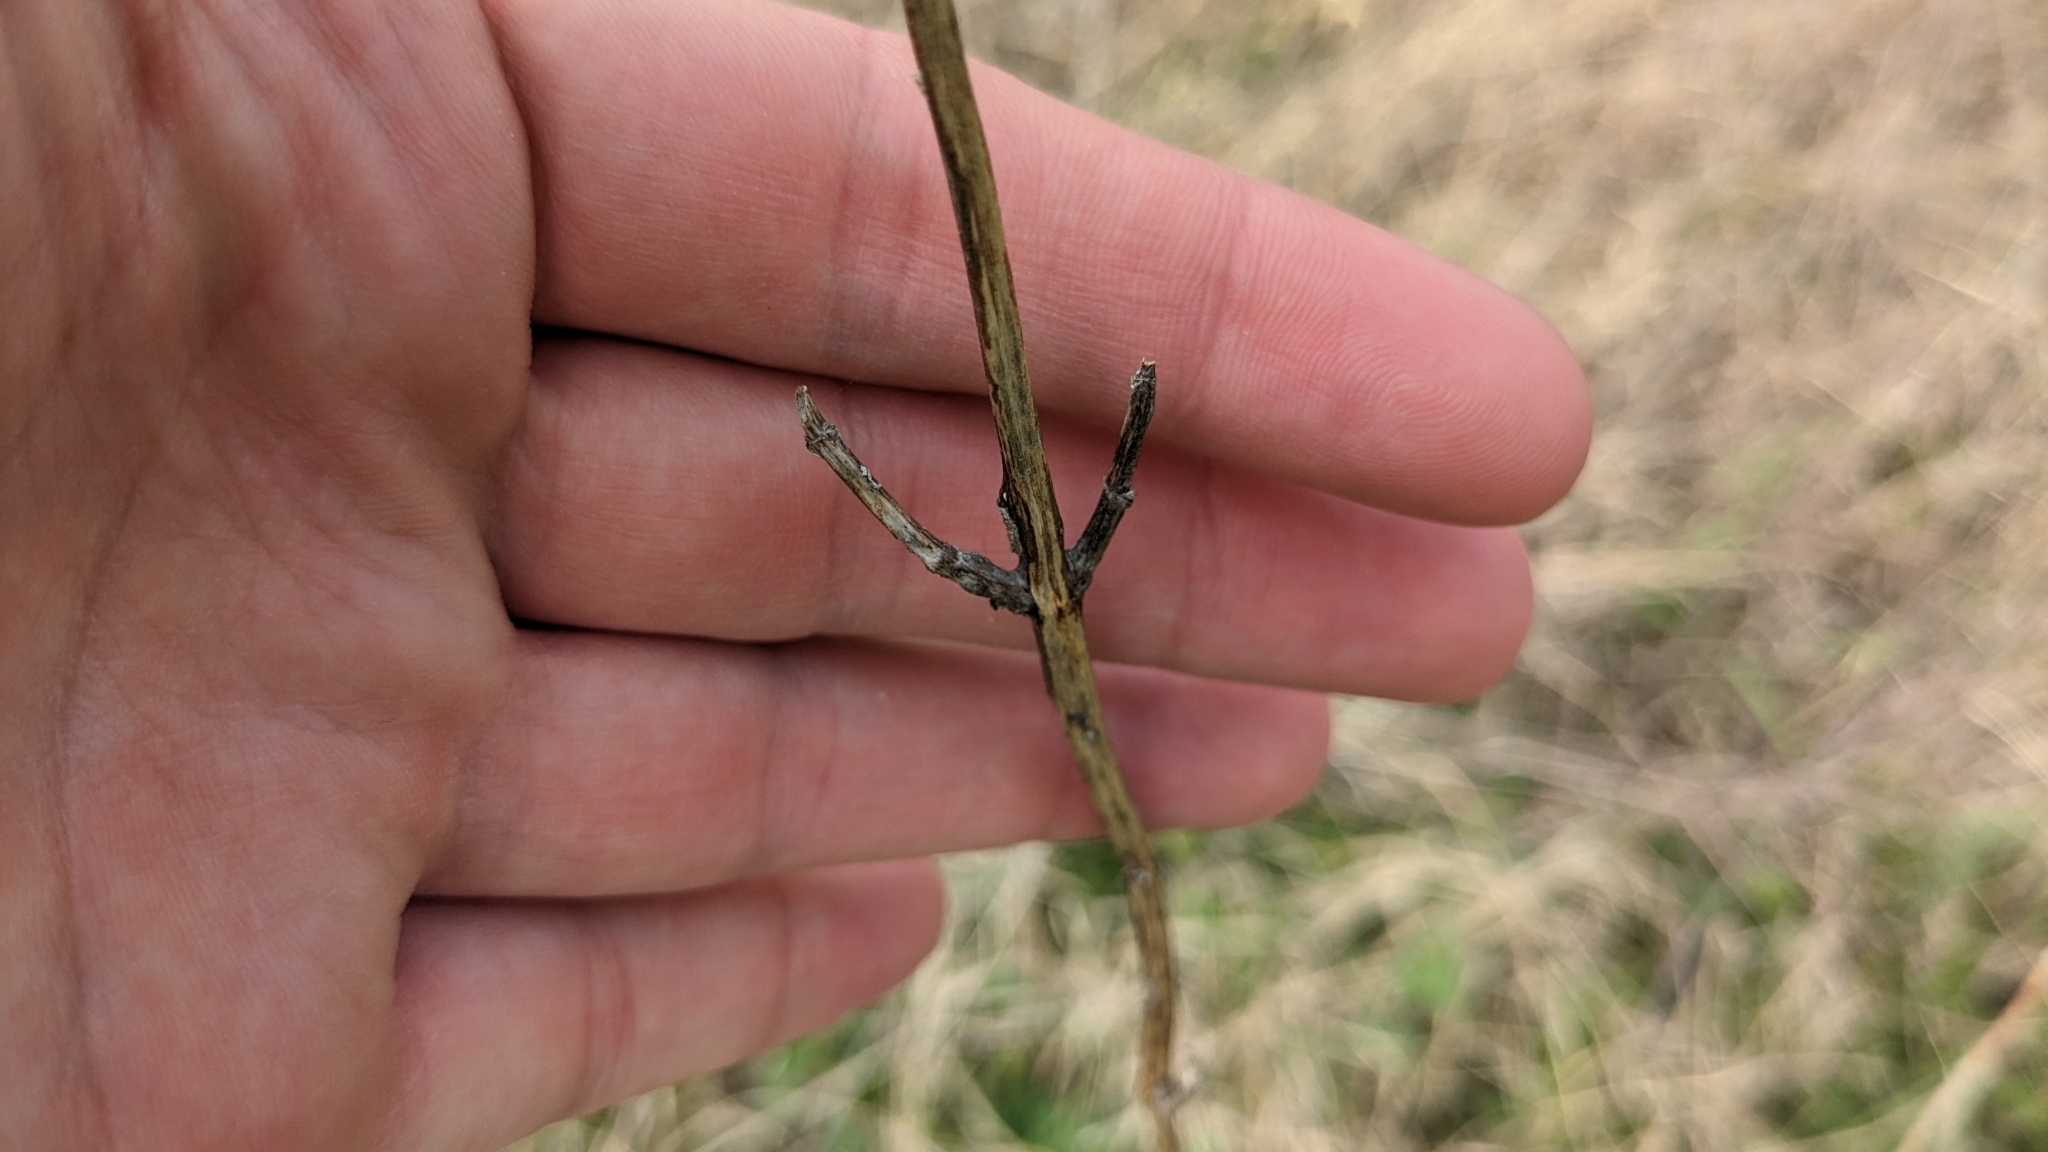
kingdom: Plantae
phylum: Tracheophyta
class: Magnoliopsida
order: Lamiales
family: Lamiaceae
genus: Monarda
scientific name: Monarda citriodora
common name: Lemon beebalm
